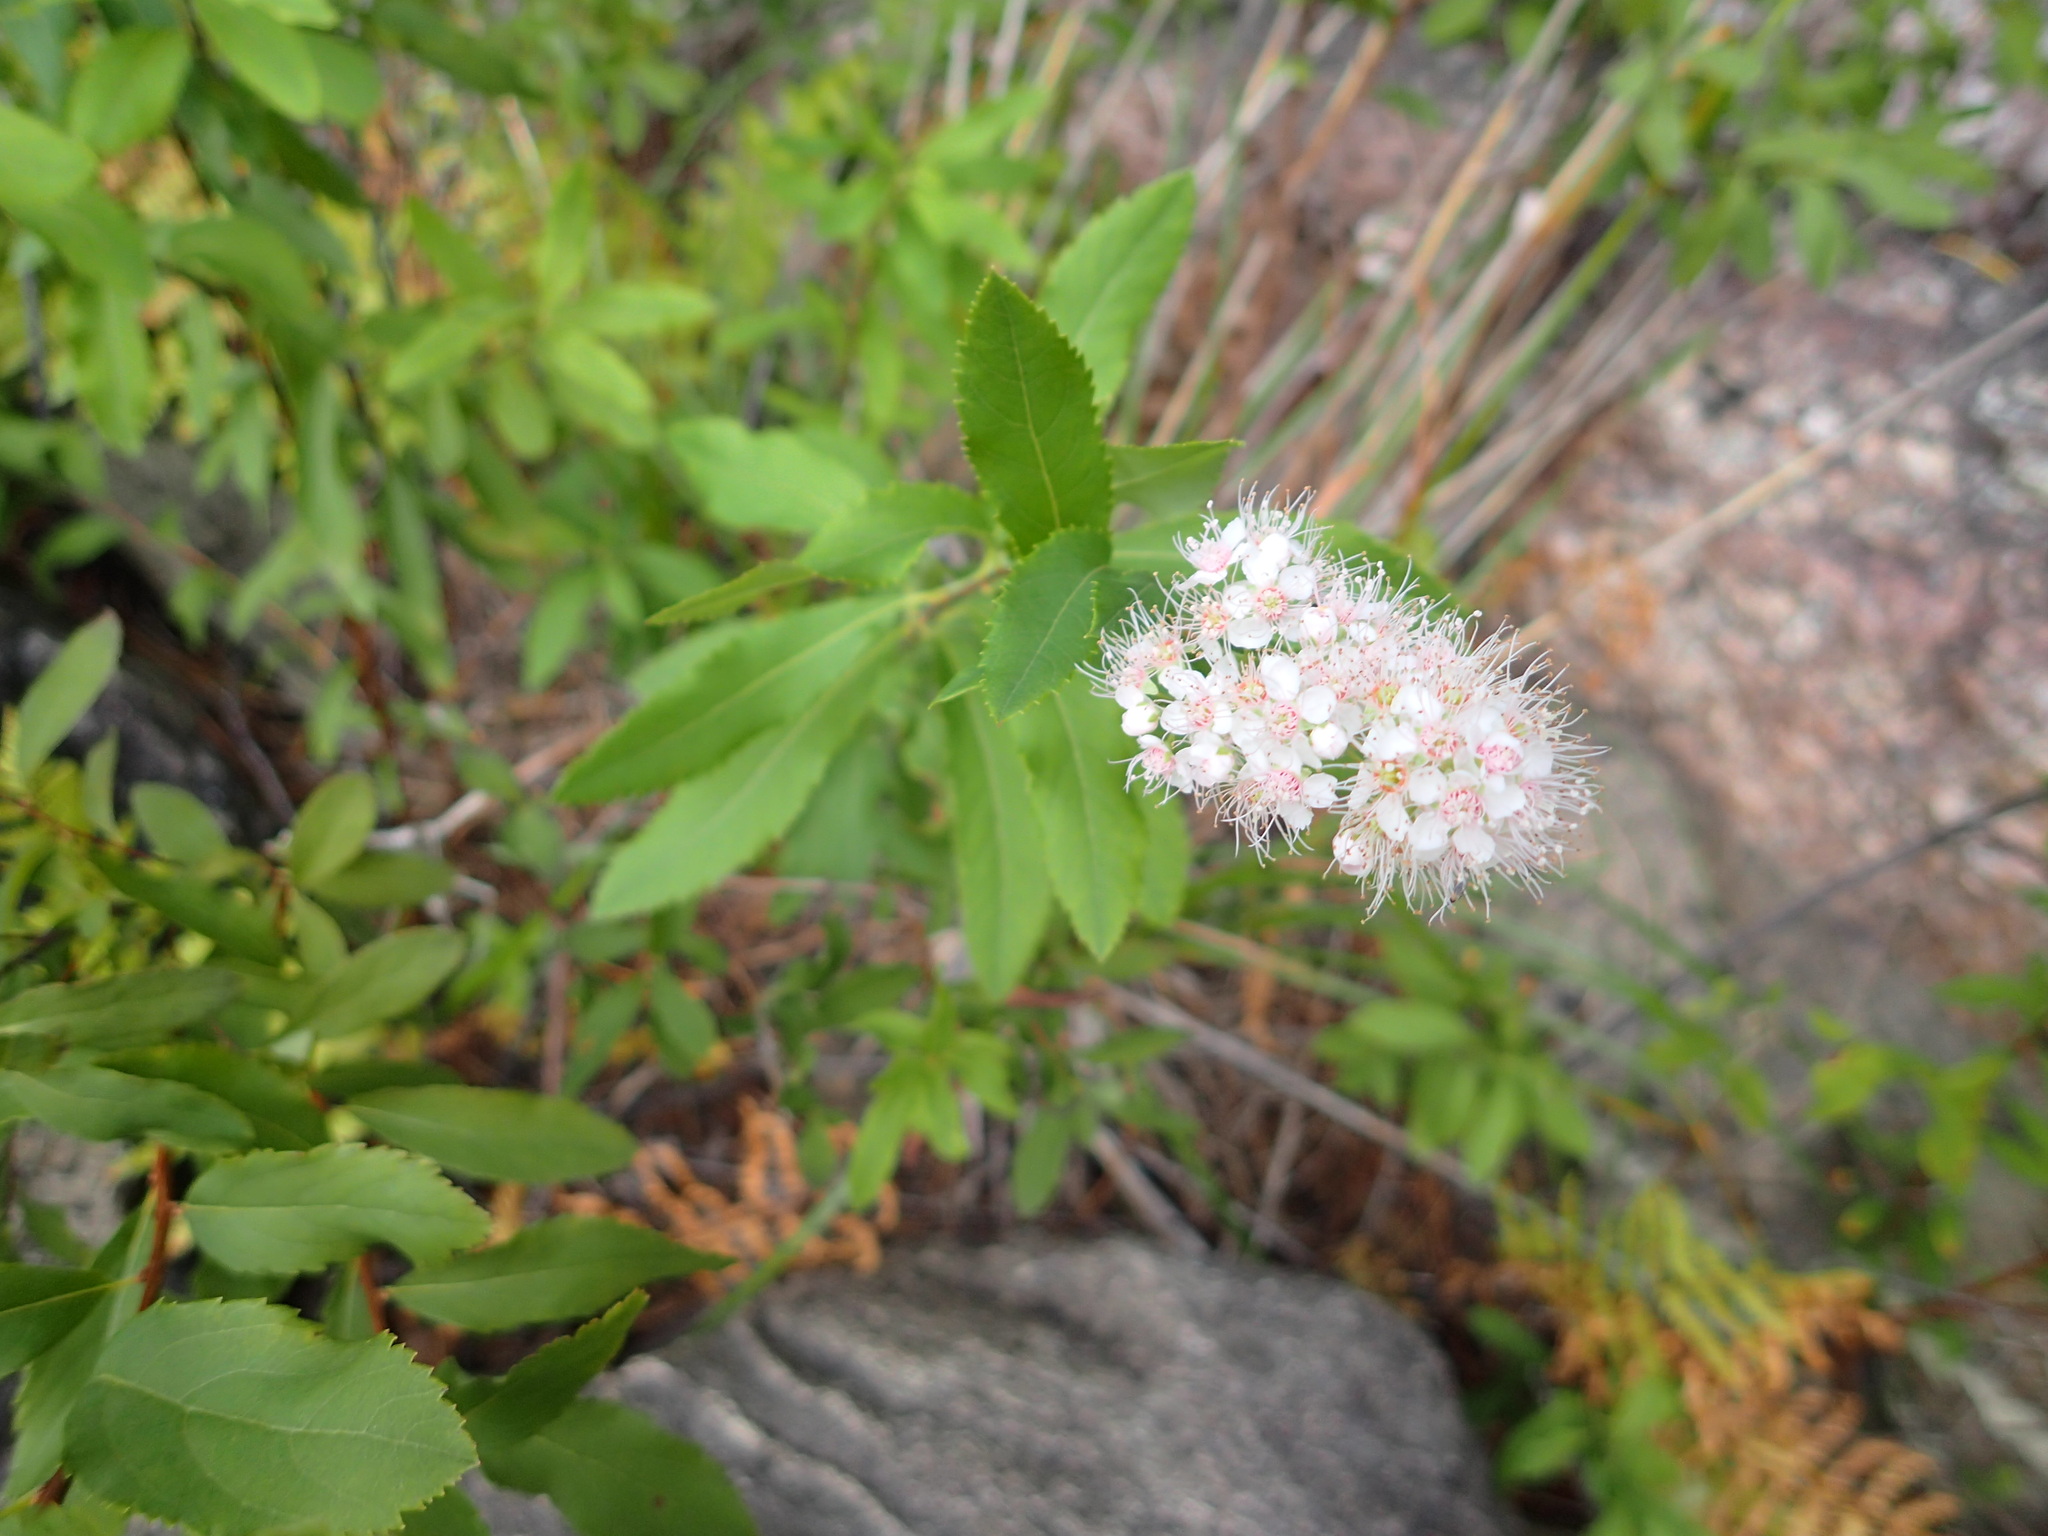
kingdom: Plantae
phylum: Tracheophyta
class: Magnoliopsida
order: Rosales
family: Rosaceae
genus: Spiraea
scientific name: Spiraea alba
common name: Pale bridewort
